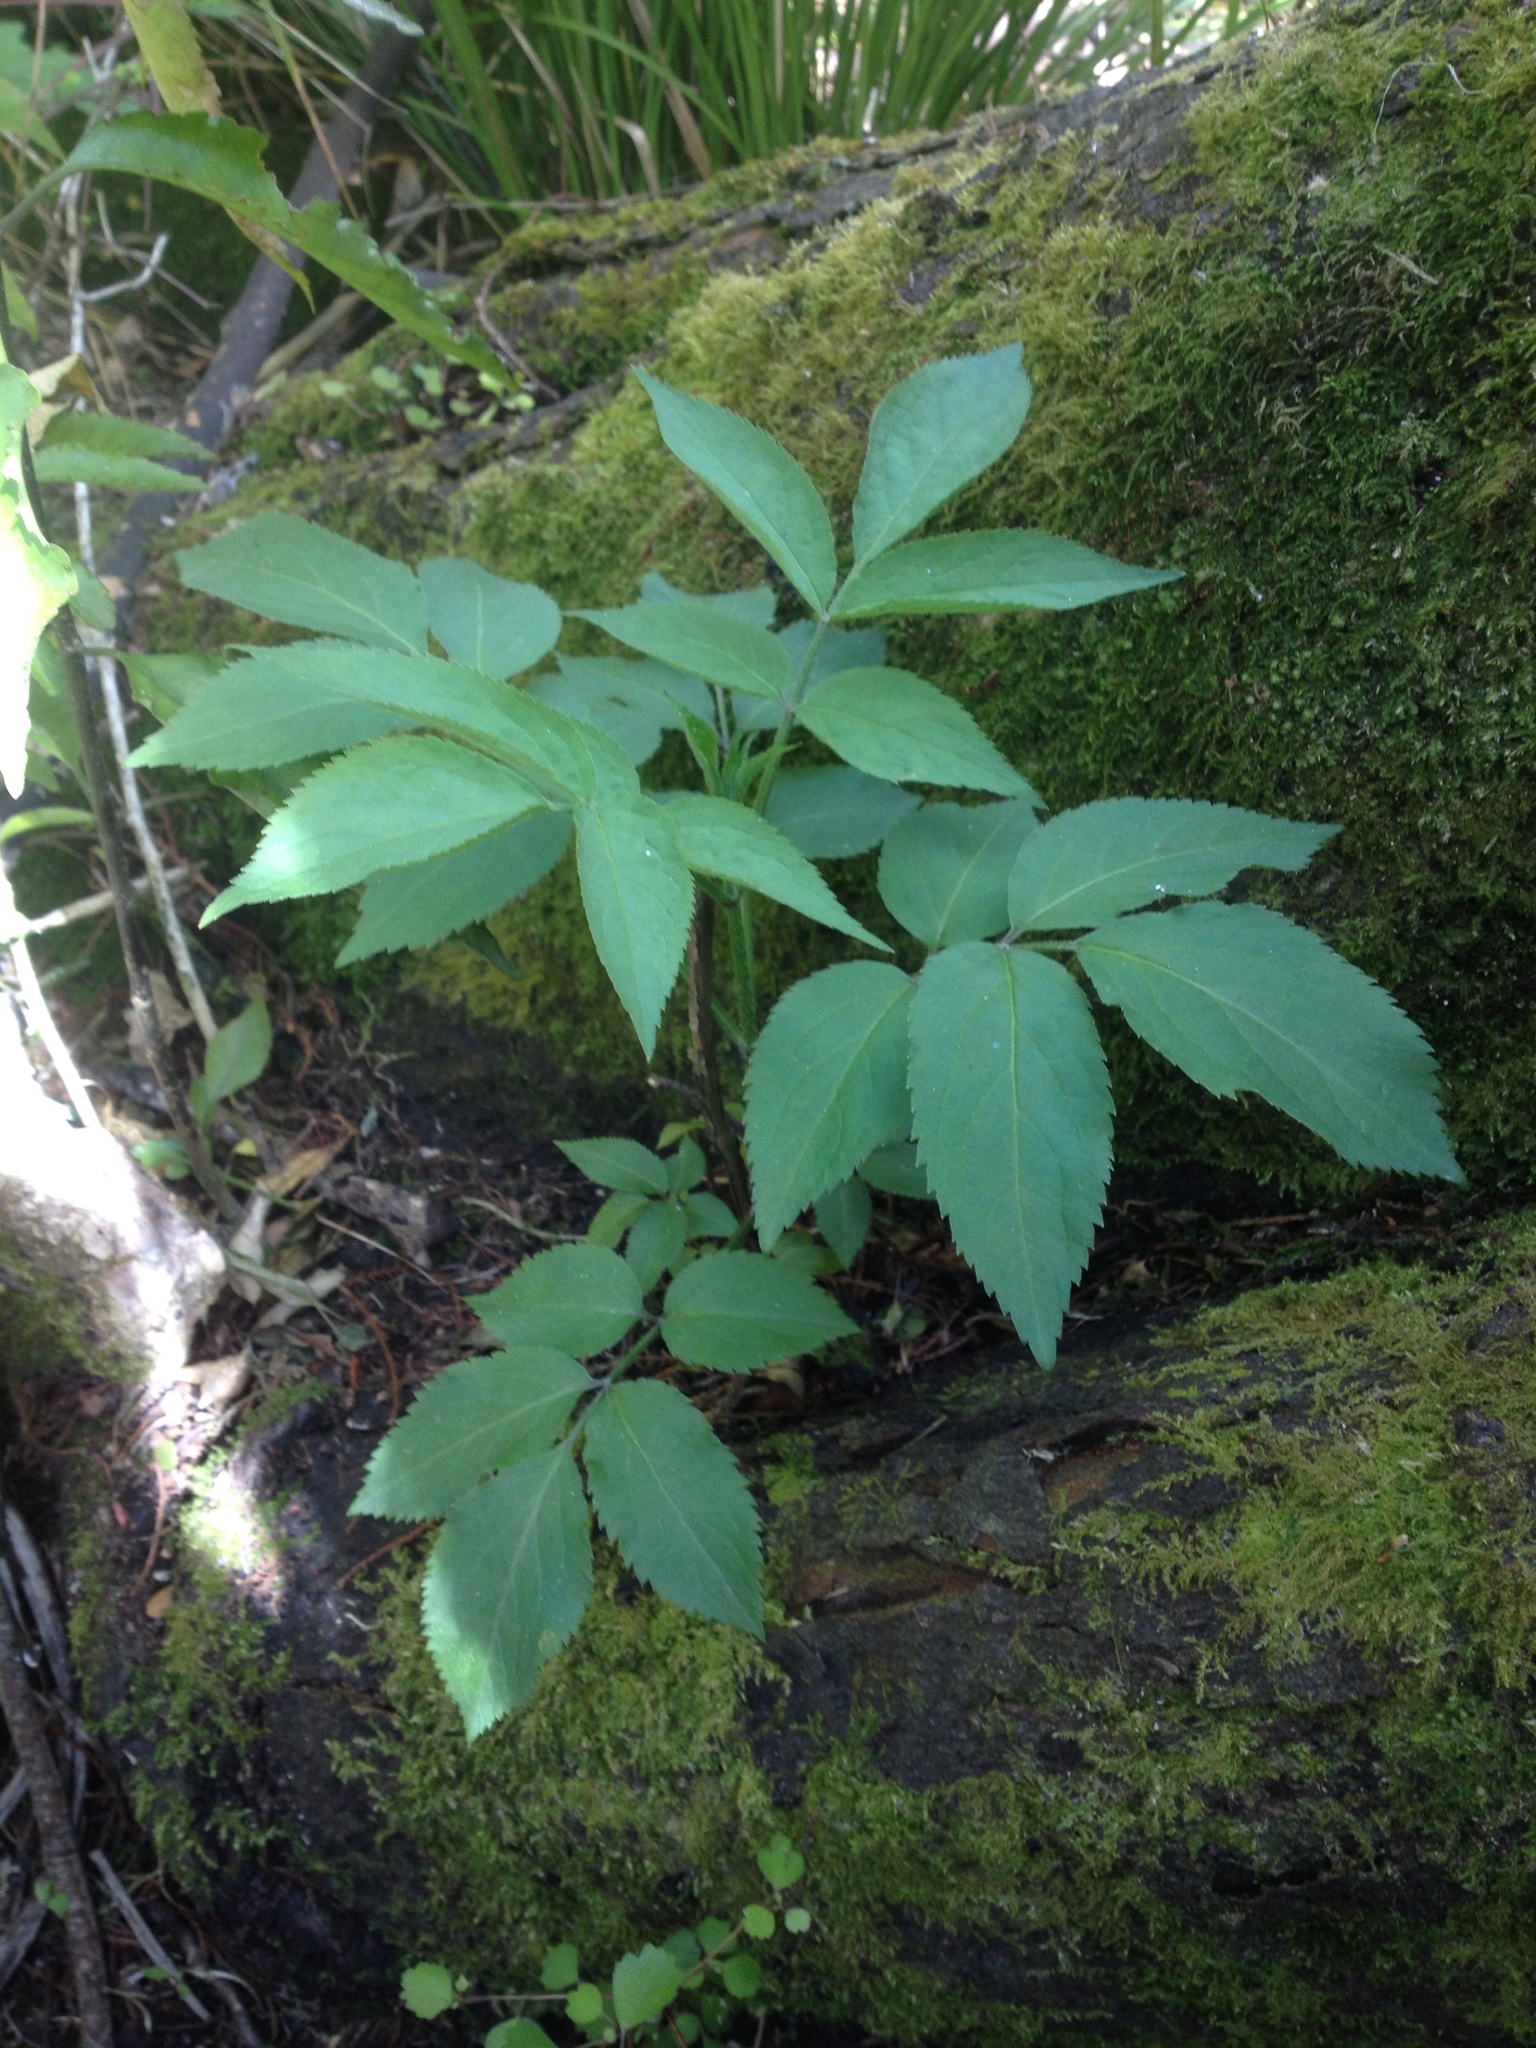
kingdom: Plantae
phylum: Tracheophyta
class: Magnoliopsida
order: Dipsacales
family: Viburnaceae
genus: Sambucus
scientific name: Sambucus nigra
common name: Elder
